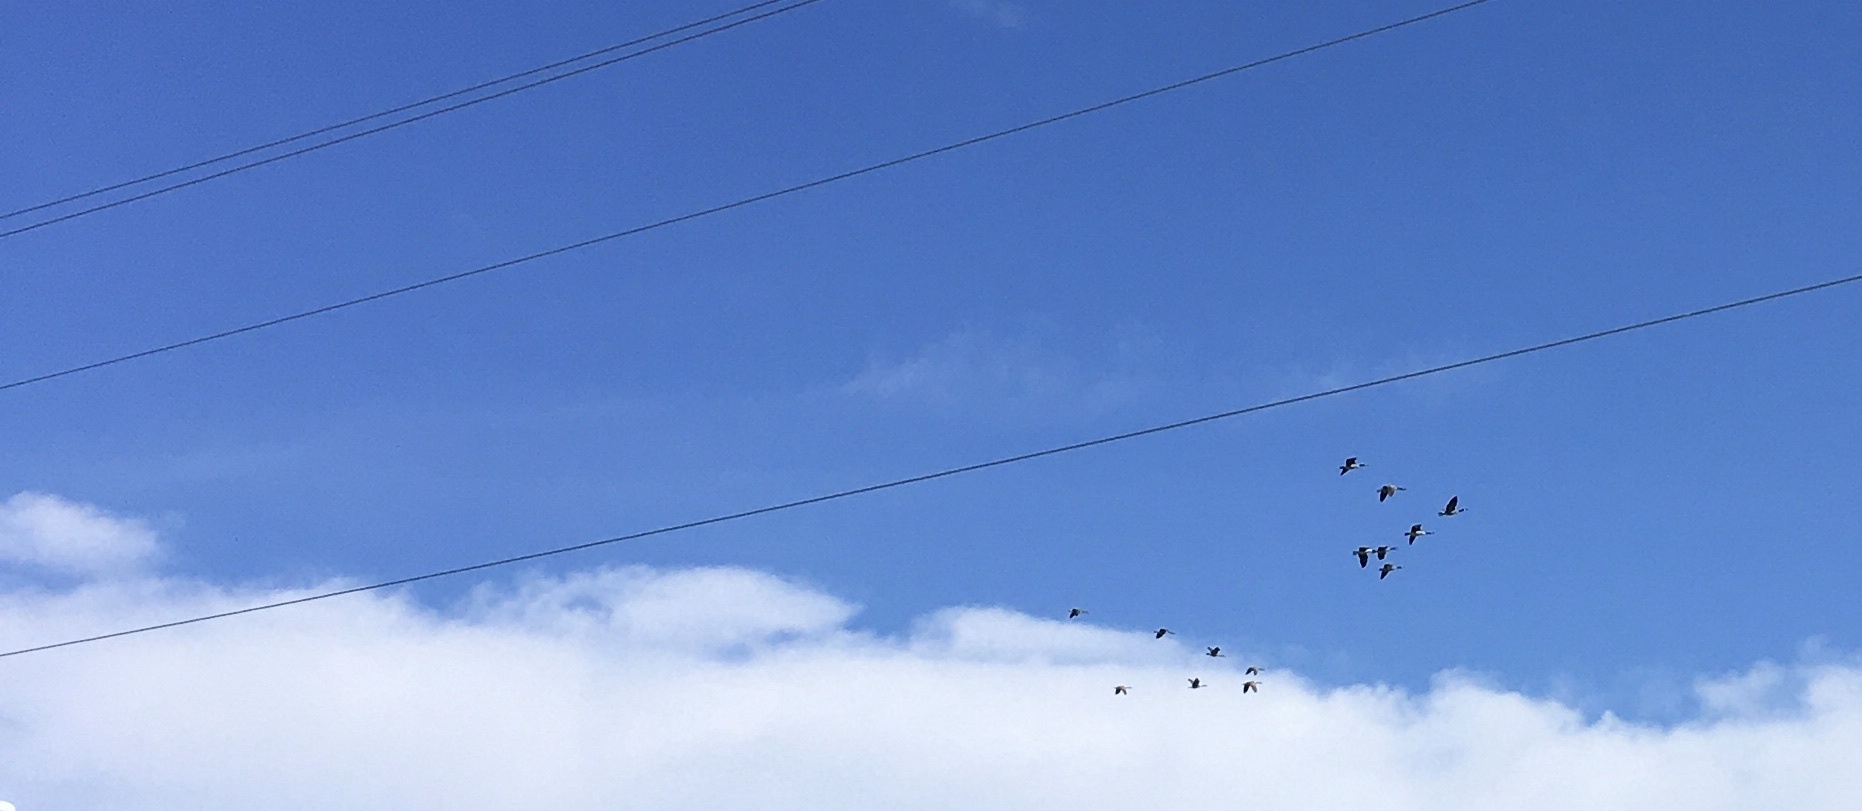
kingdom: Animalia
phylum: Chordata
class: Aves
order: Anseriformes
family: Anatidae
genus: Branta
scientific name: Branta canadensis
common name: Canada goose
